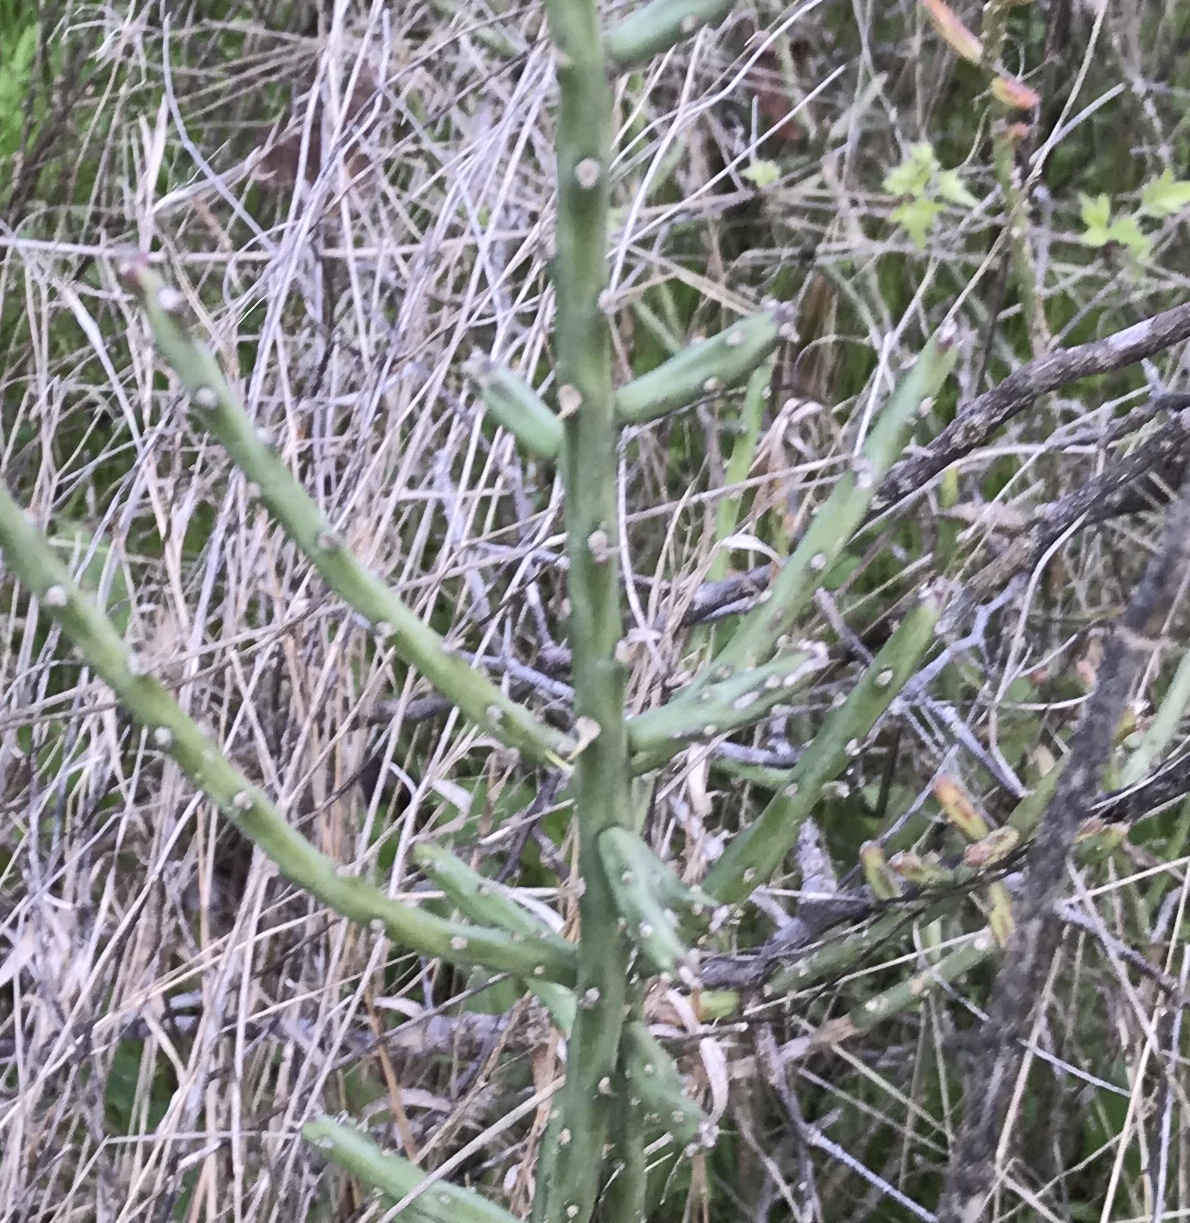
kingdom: Plantae
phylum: Tracheophyta
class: Magnoliopsida
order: Caryophyllales
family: Cactaceae
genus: Cylindropuntia
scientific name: Cylindropuntia leptocaulis
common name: Christmas cactus
